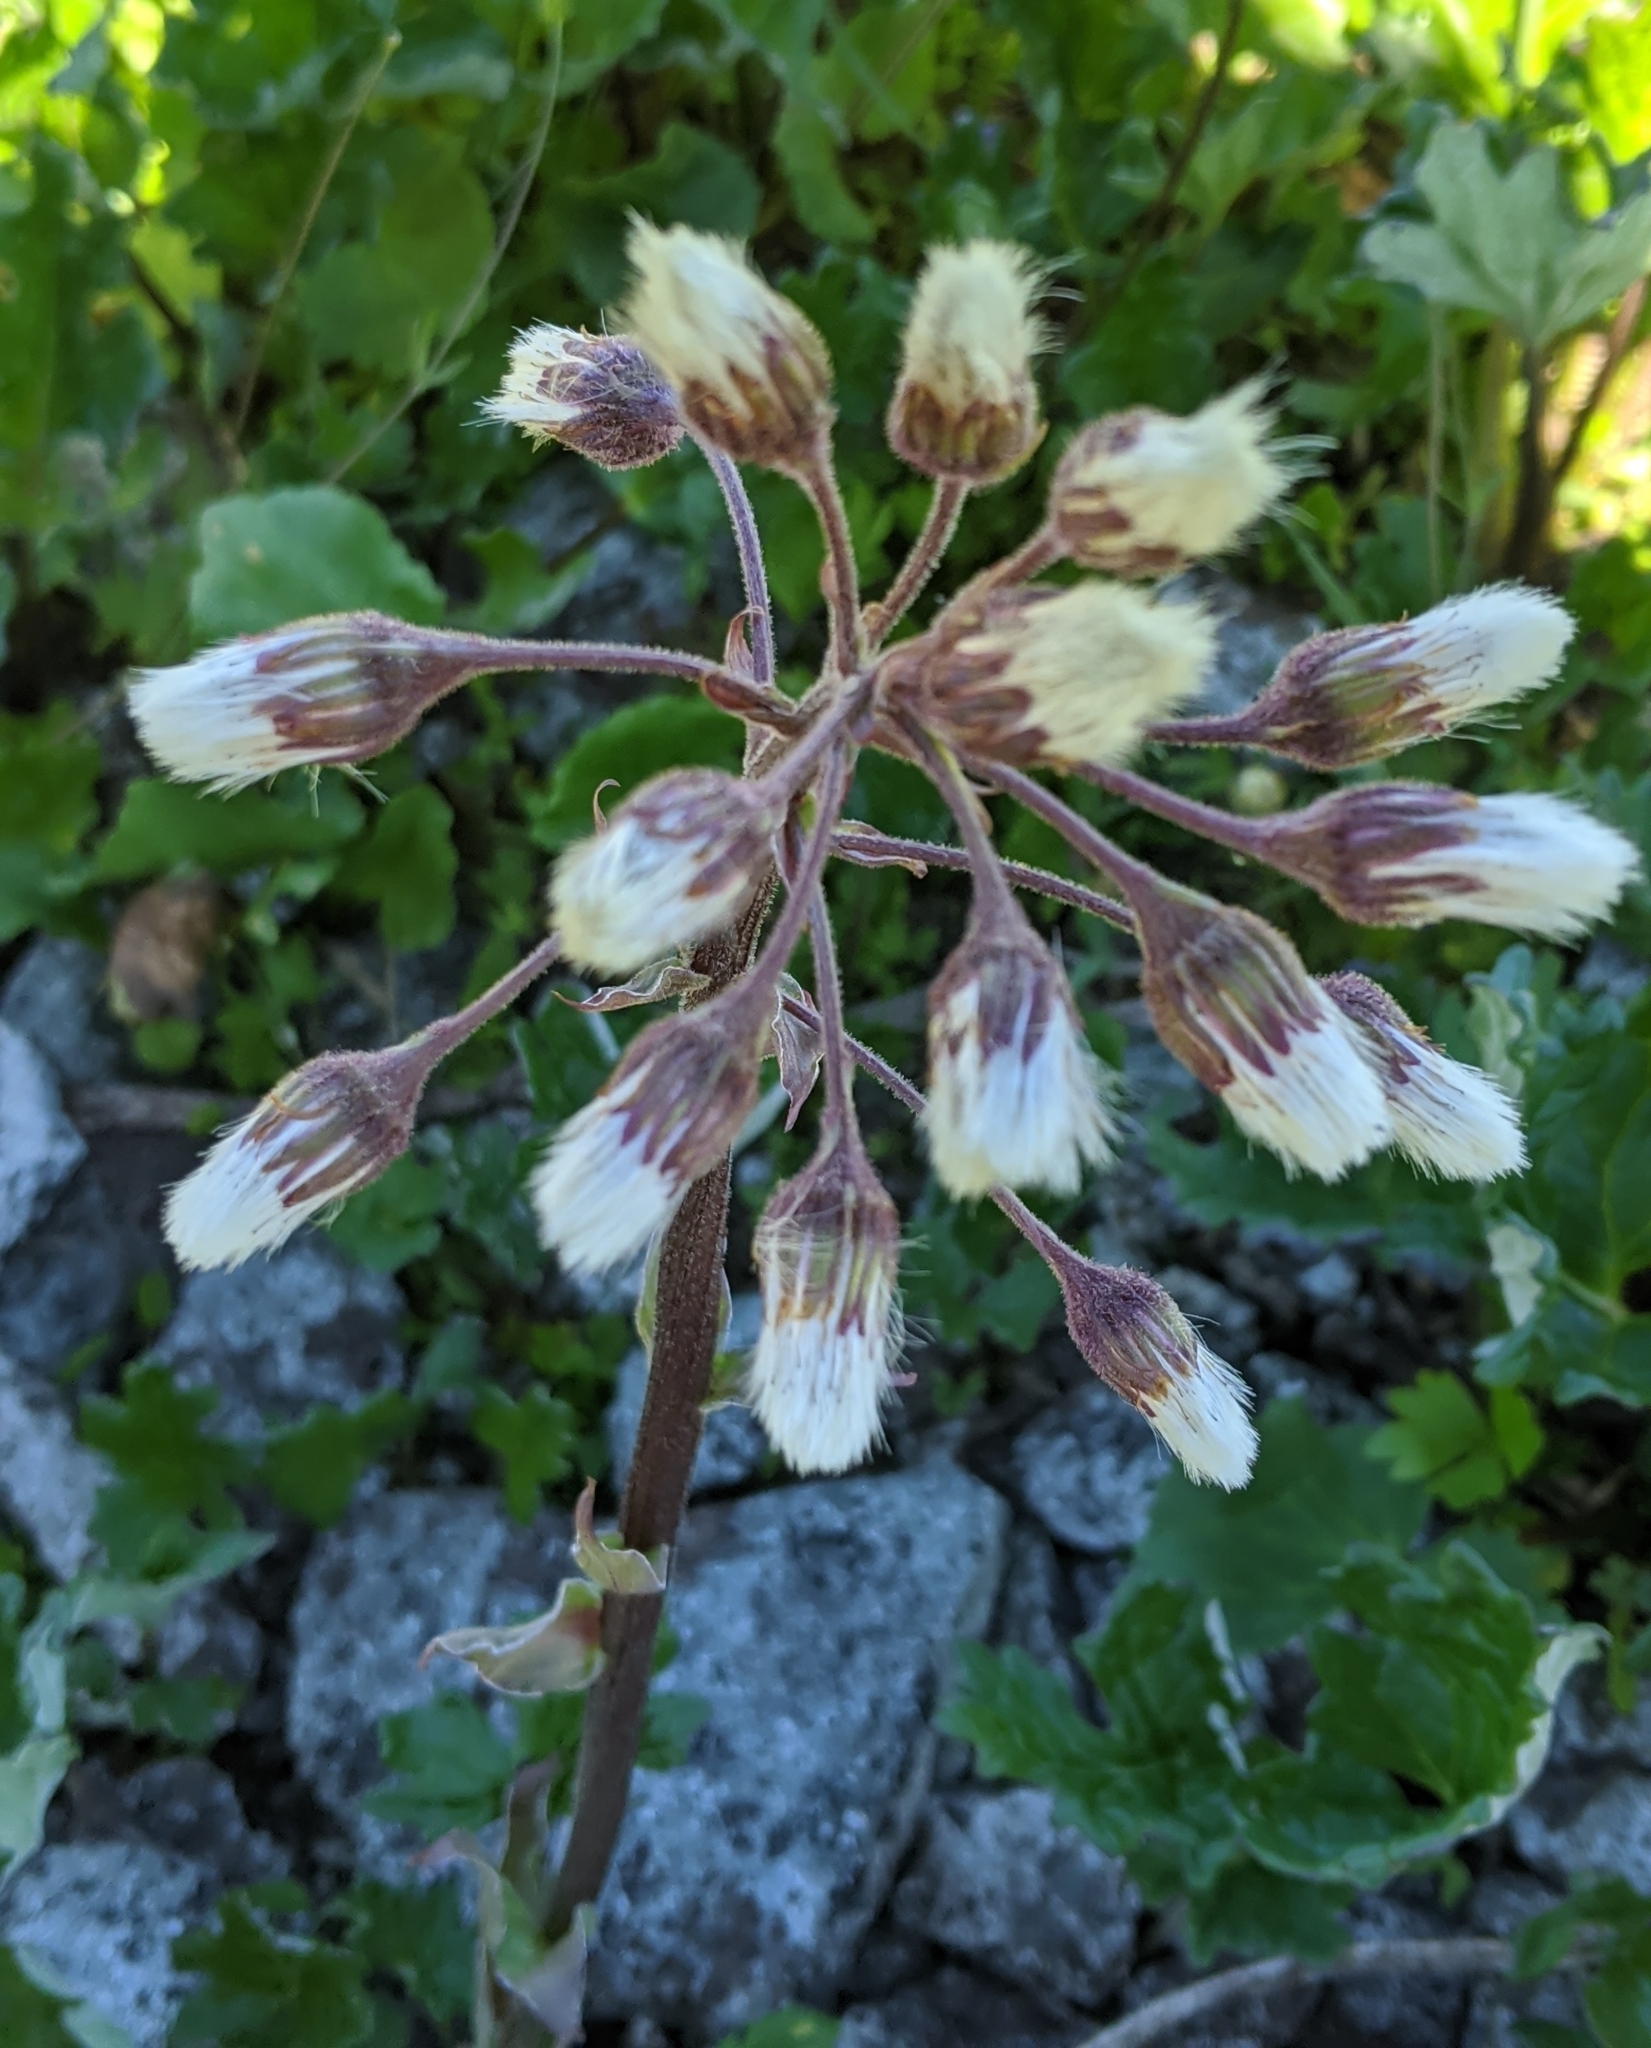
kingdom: Plantae
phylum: Tracheophyta
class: Magnoliopsida
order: Asterales
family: Asteraceae
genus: Petasites
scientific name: Petasites frigidus
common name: Arctic butterbur
